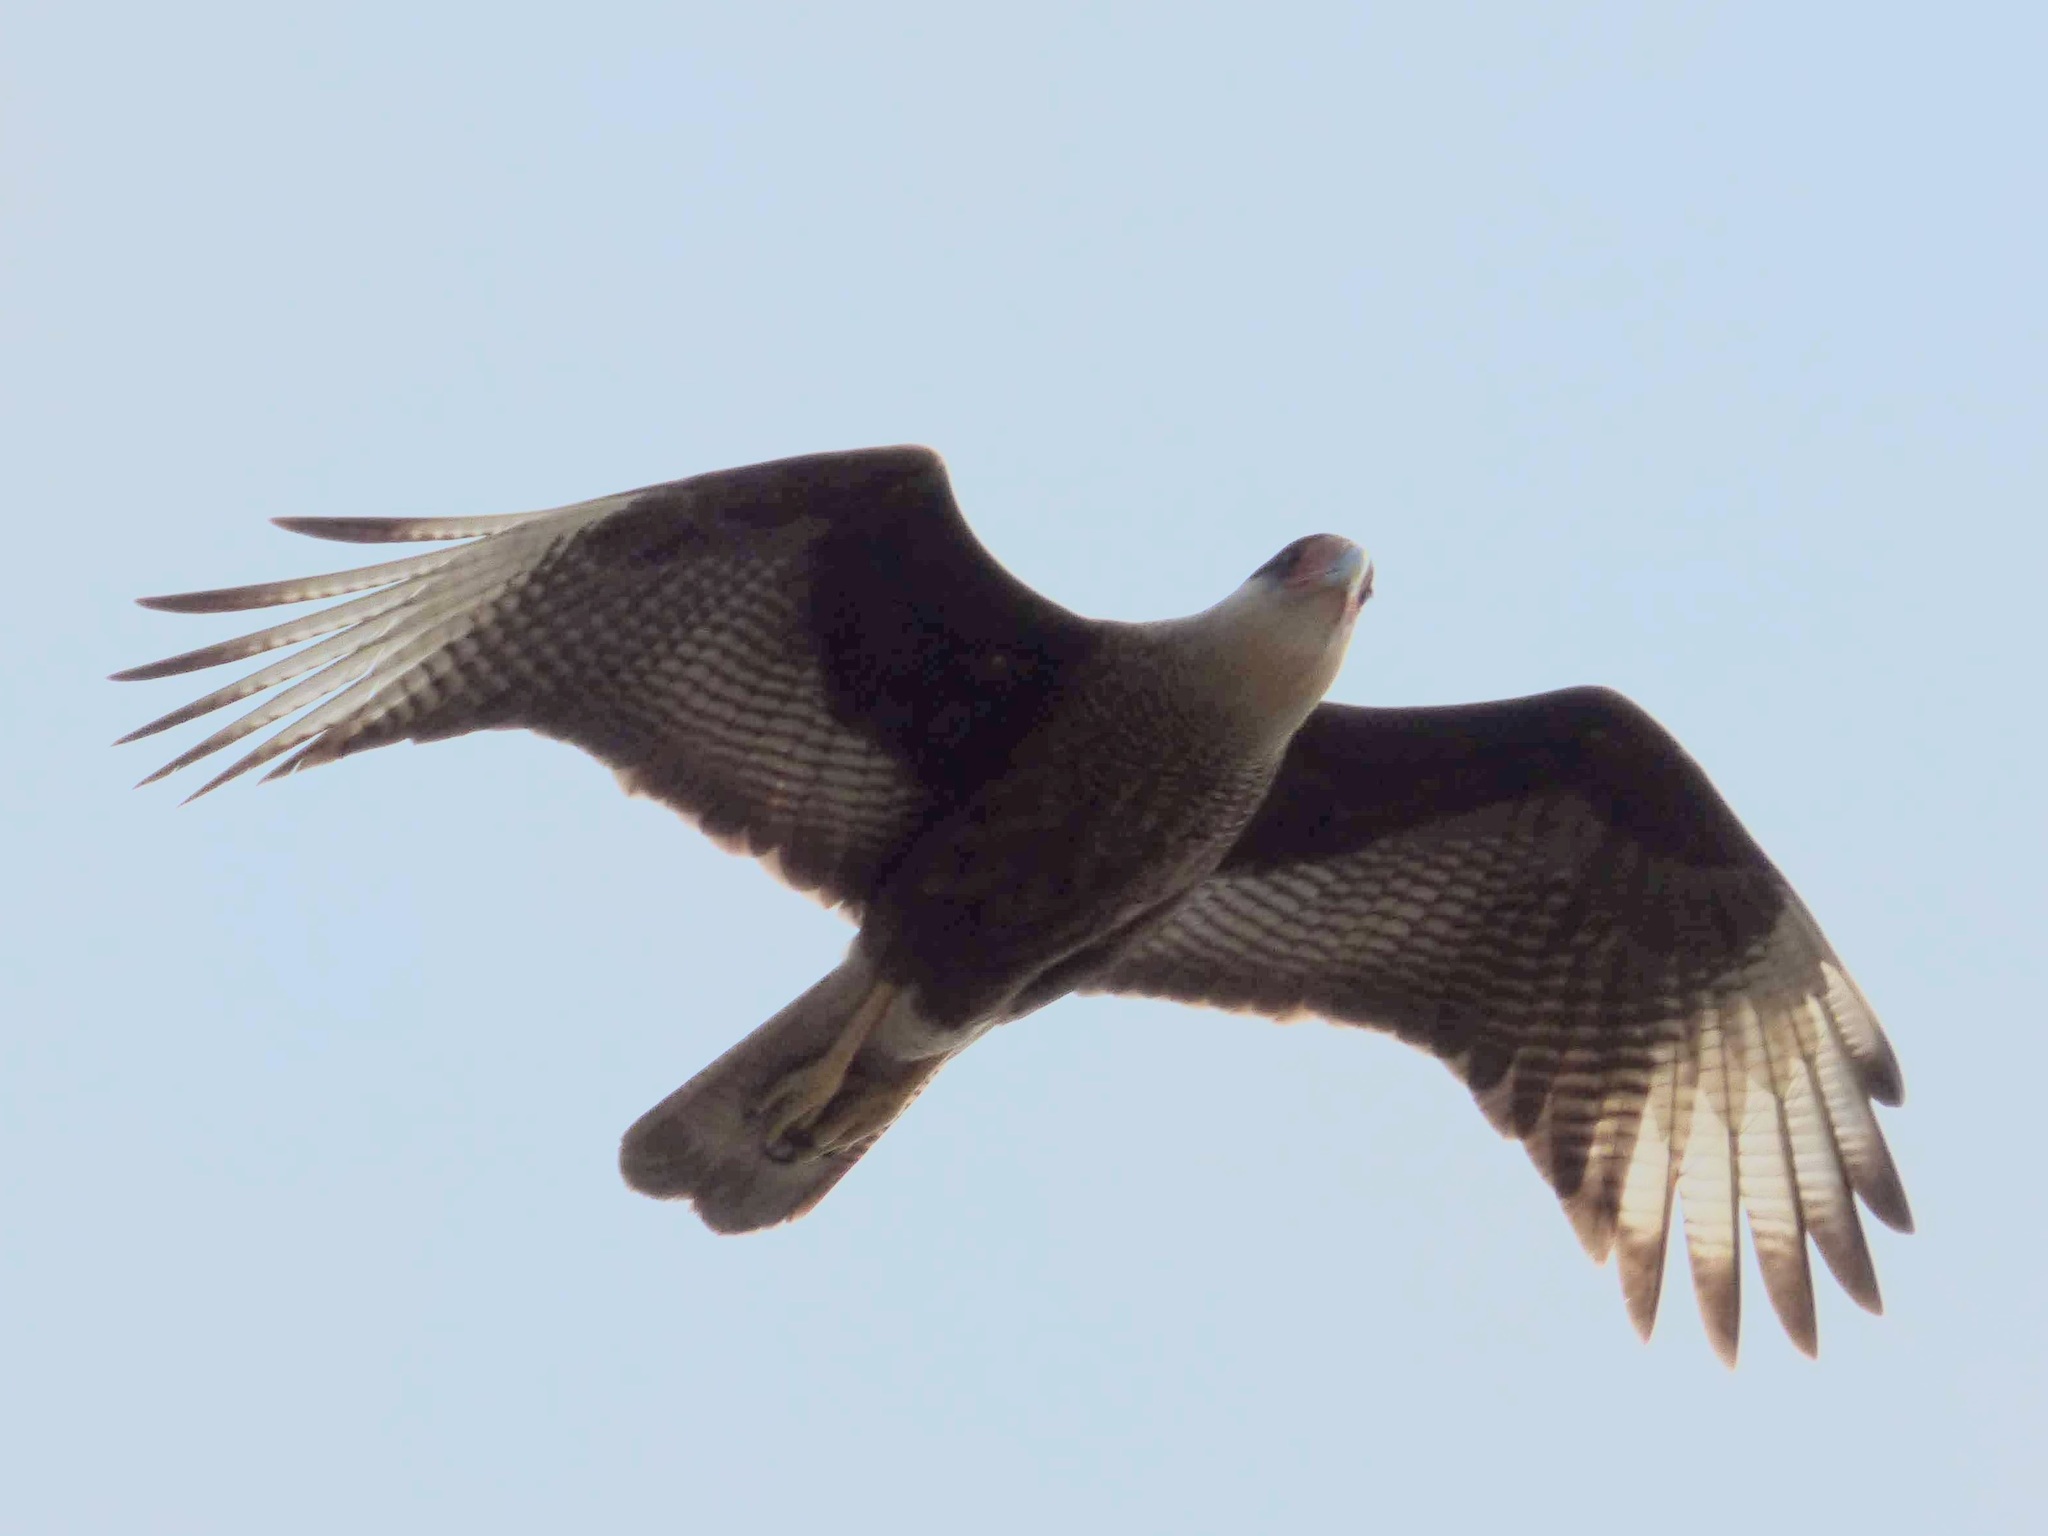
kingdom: Animalia
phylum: Chordata
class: Aves
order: Falconiformes
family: Falconidae
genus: Caracara
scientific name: Caracara plancus
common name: Southern caracara
